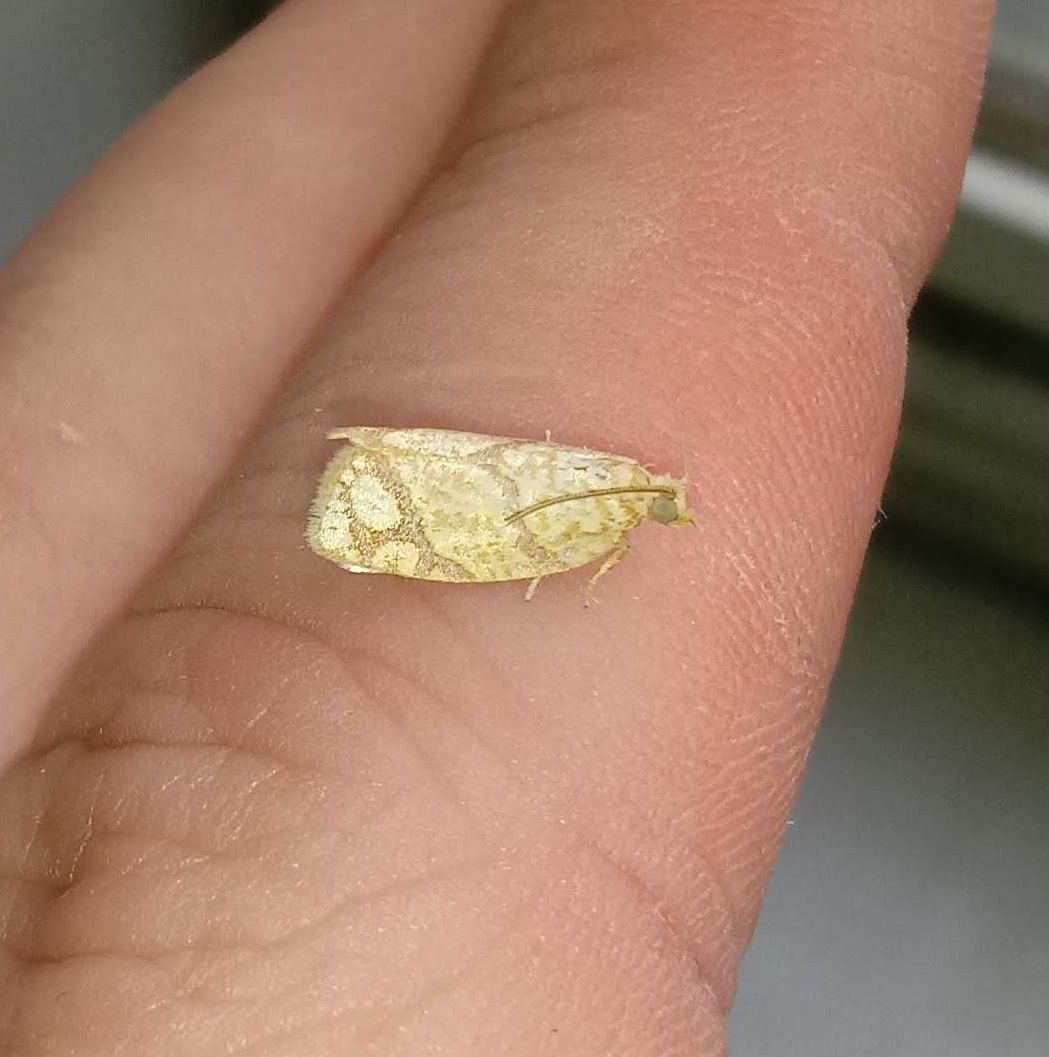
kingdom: Animalia
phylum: Arthropoda
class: Insecta
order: Lepidoptera
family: Tortricidae
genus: Argyrotaenia
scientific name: Argyrotaenia quercifoliana
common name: Yellow-winged oak leafroller moth
